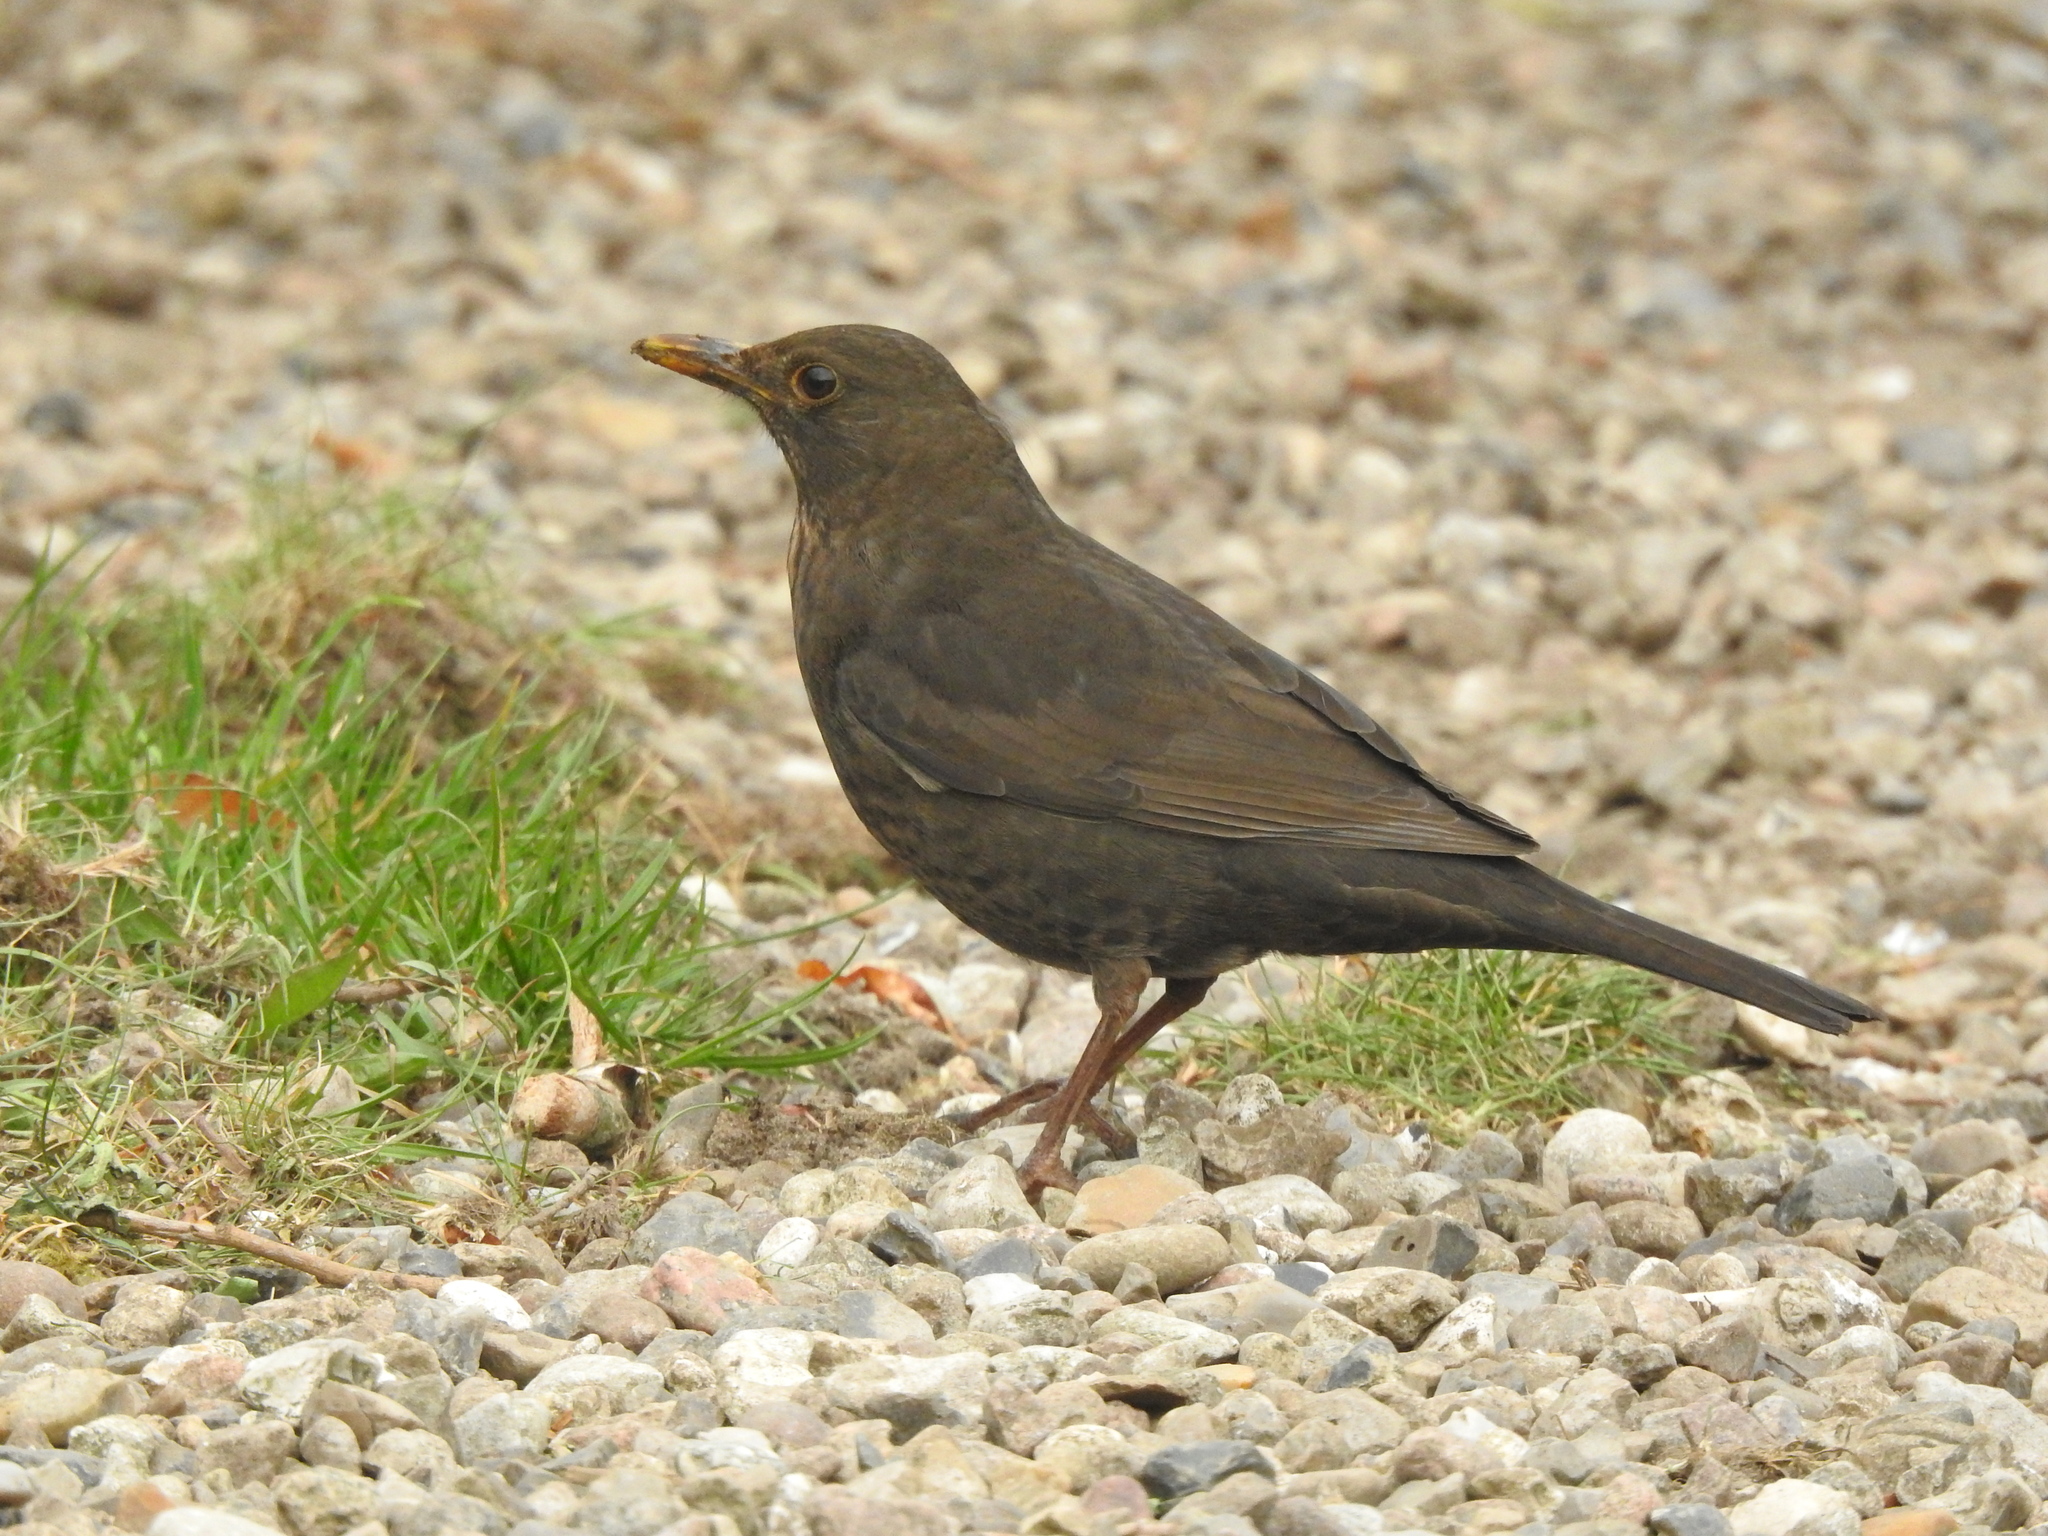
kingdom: Animalia
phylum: Chordata
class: Aves
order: Passeriformes
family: Turdidae
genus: Turdus
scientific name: Turdus merula
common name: Common blackbird
